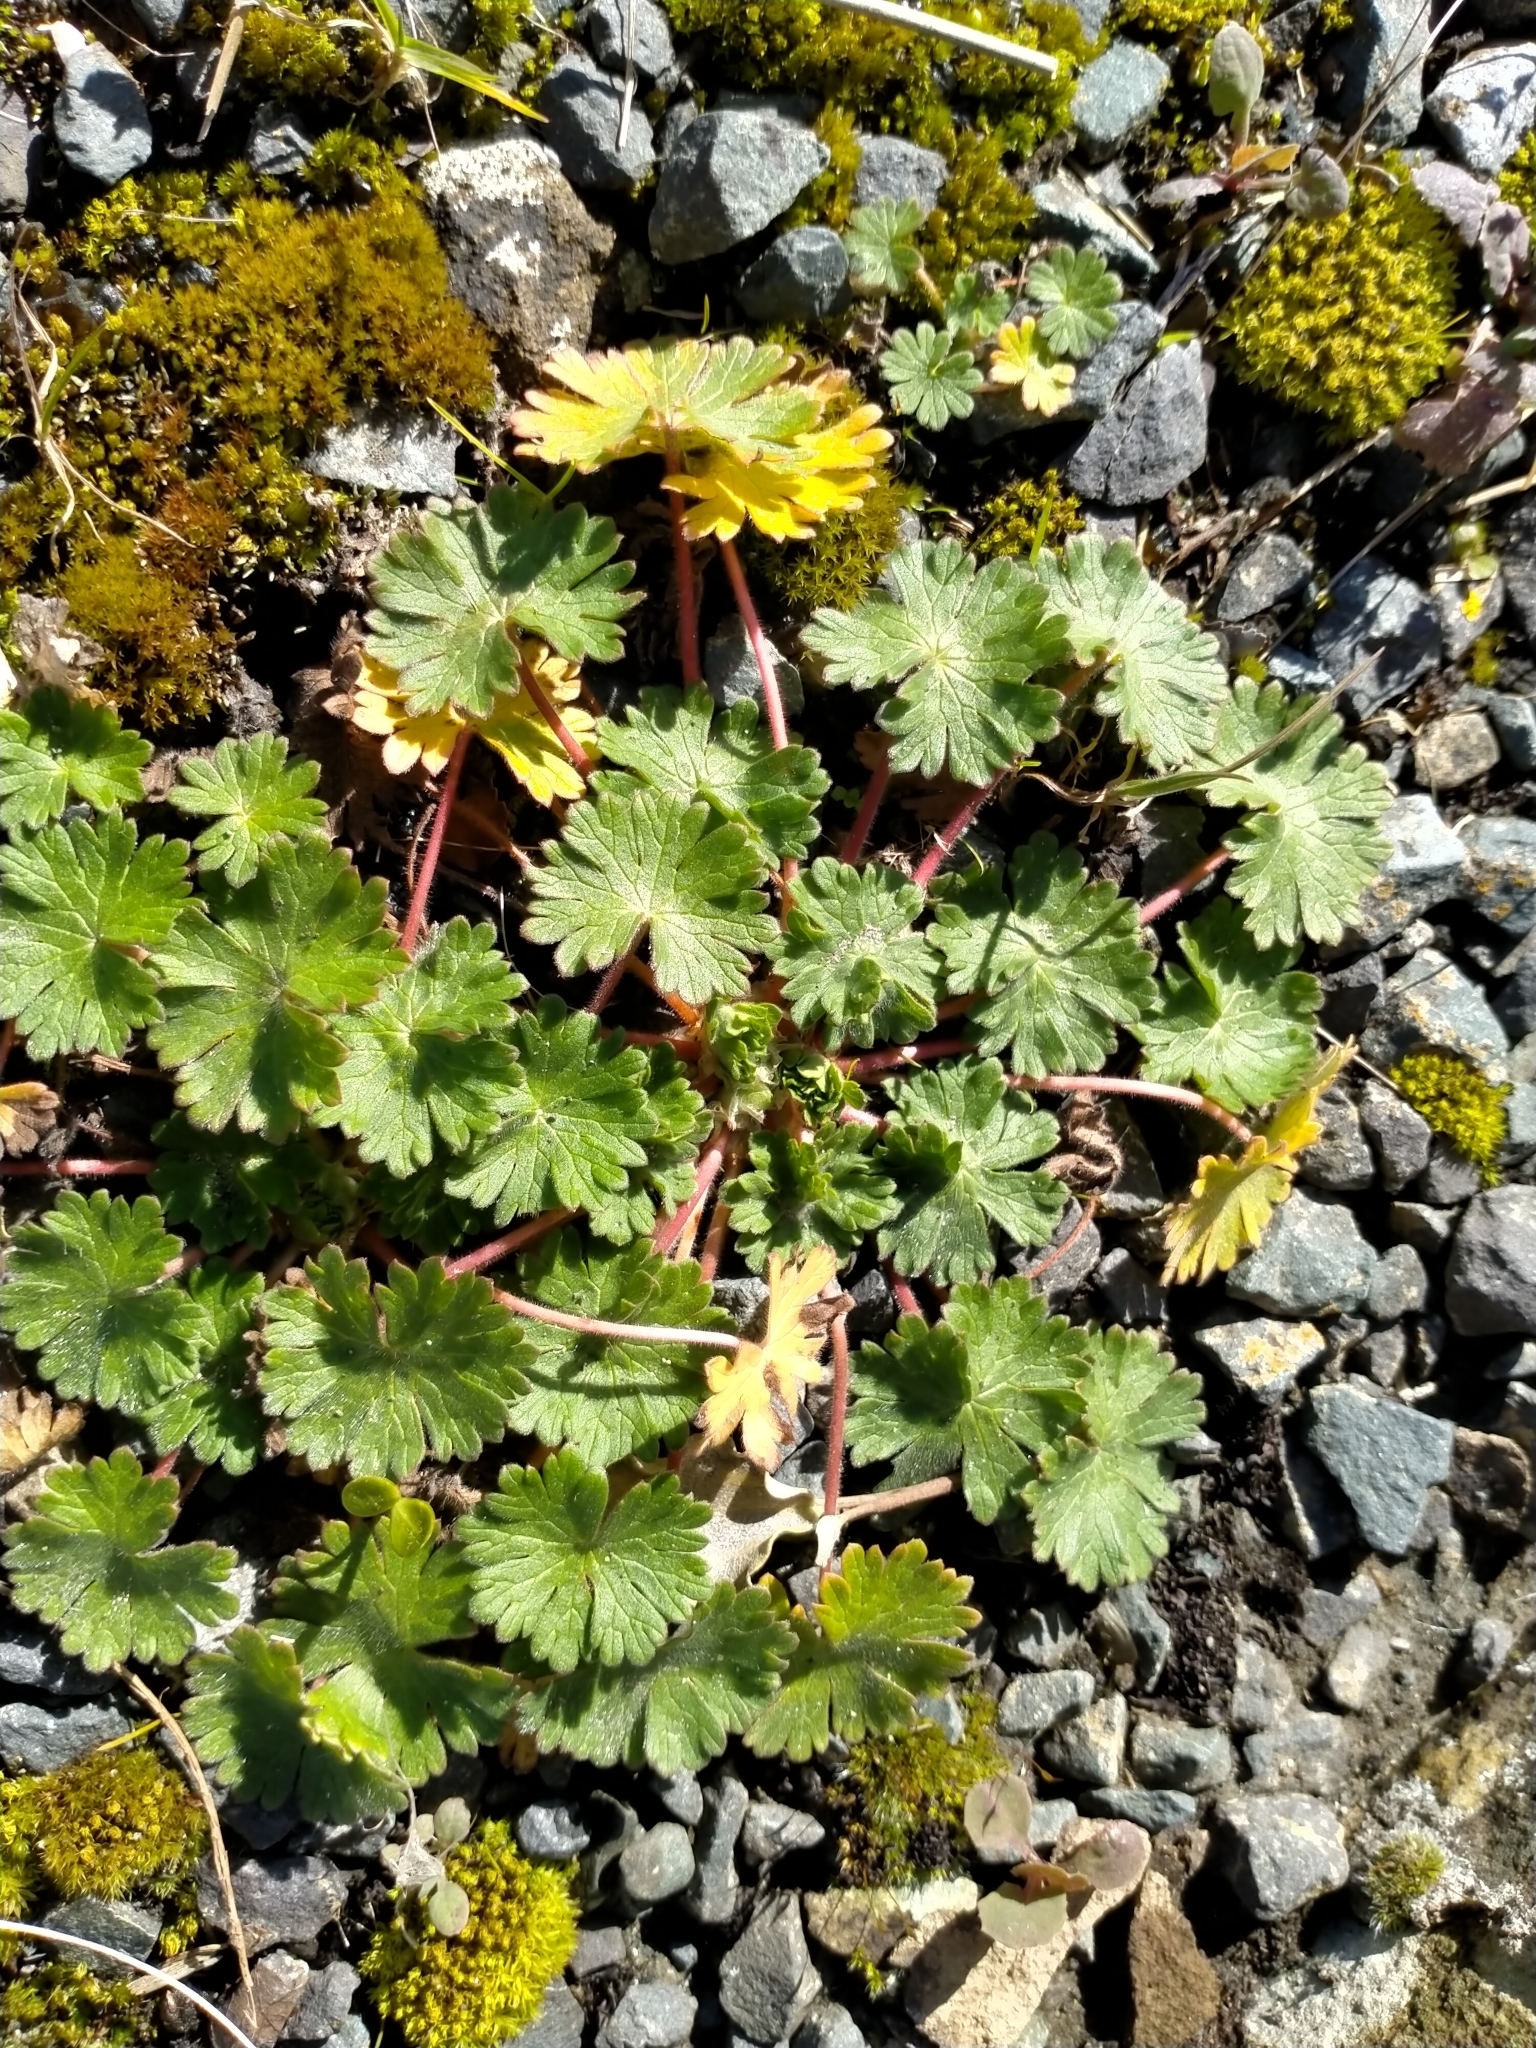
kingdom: Plantae
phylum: Tracheophyta
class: Magnoliopsida
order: Geraniales
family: Geraniaceae
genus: Geranium
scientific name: Geranium molle
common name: Dove's-foot crane's-bill
